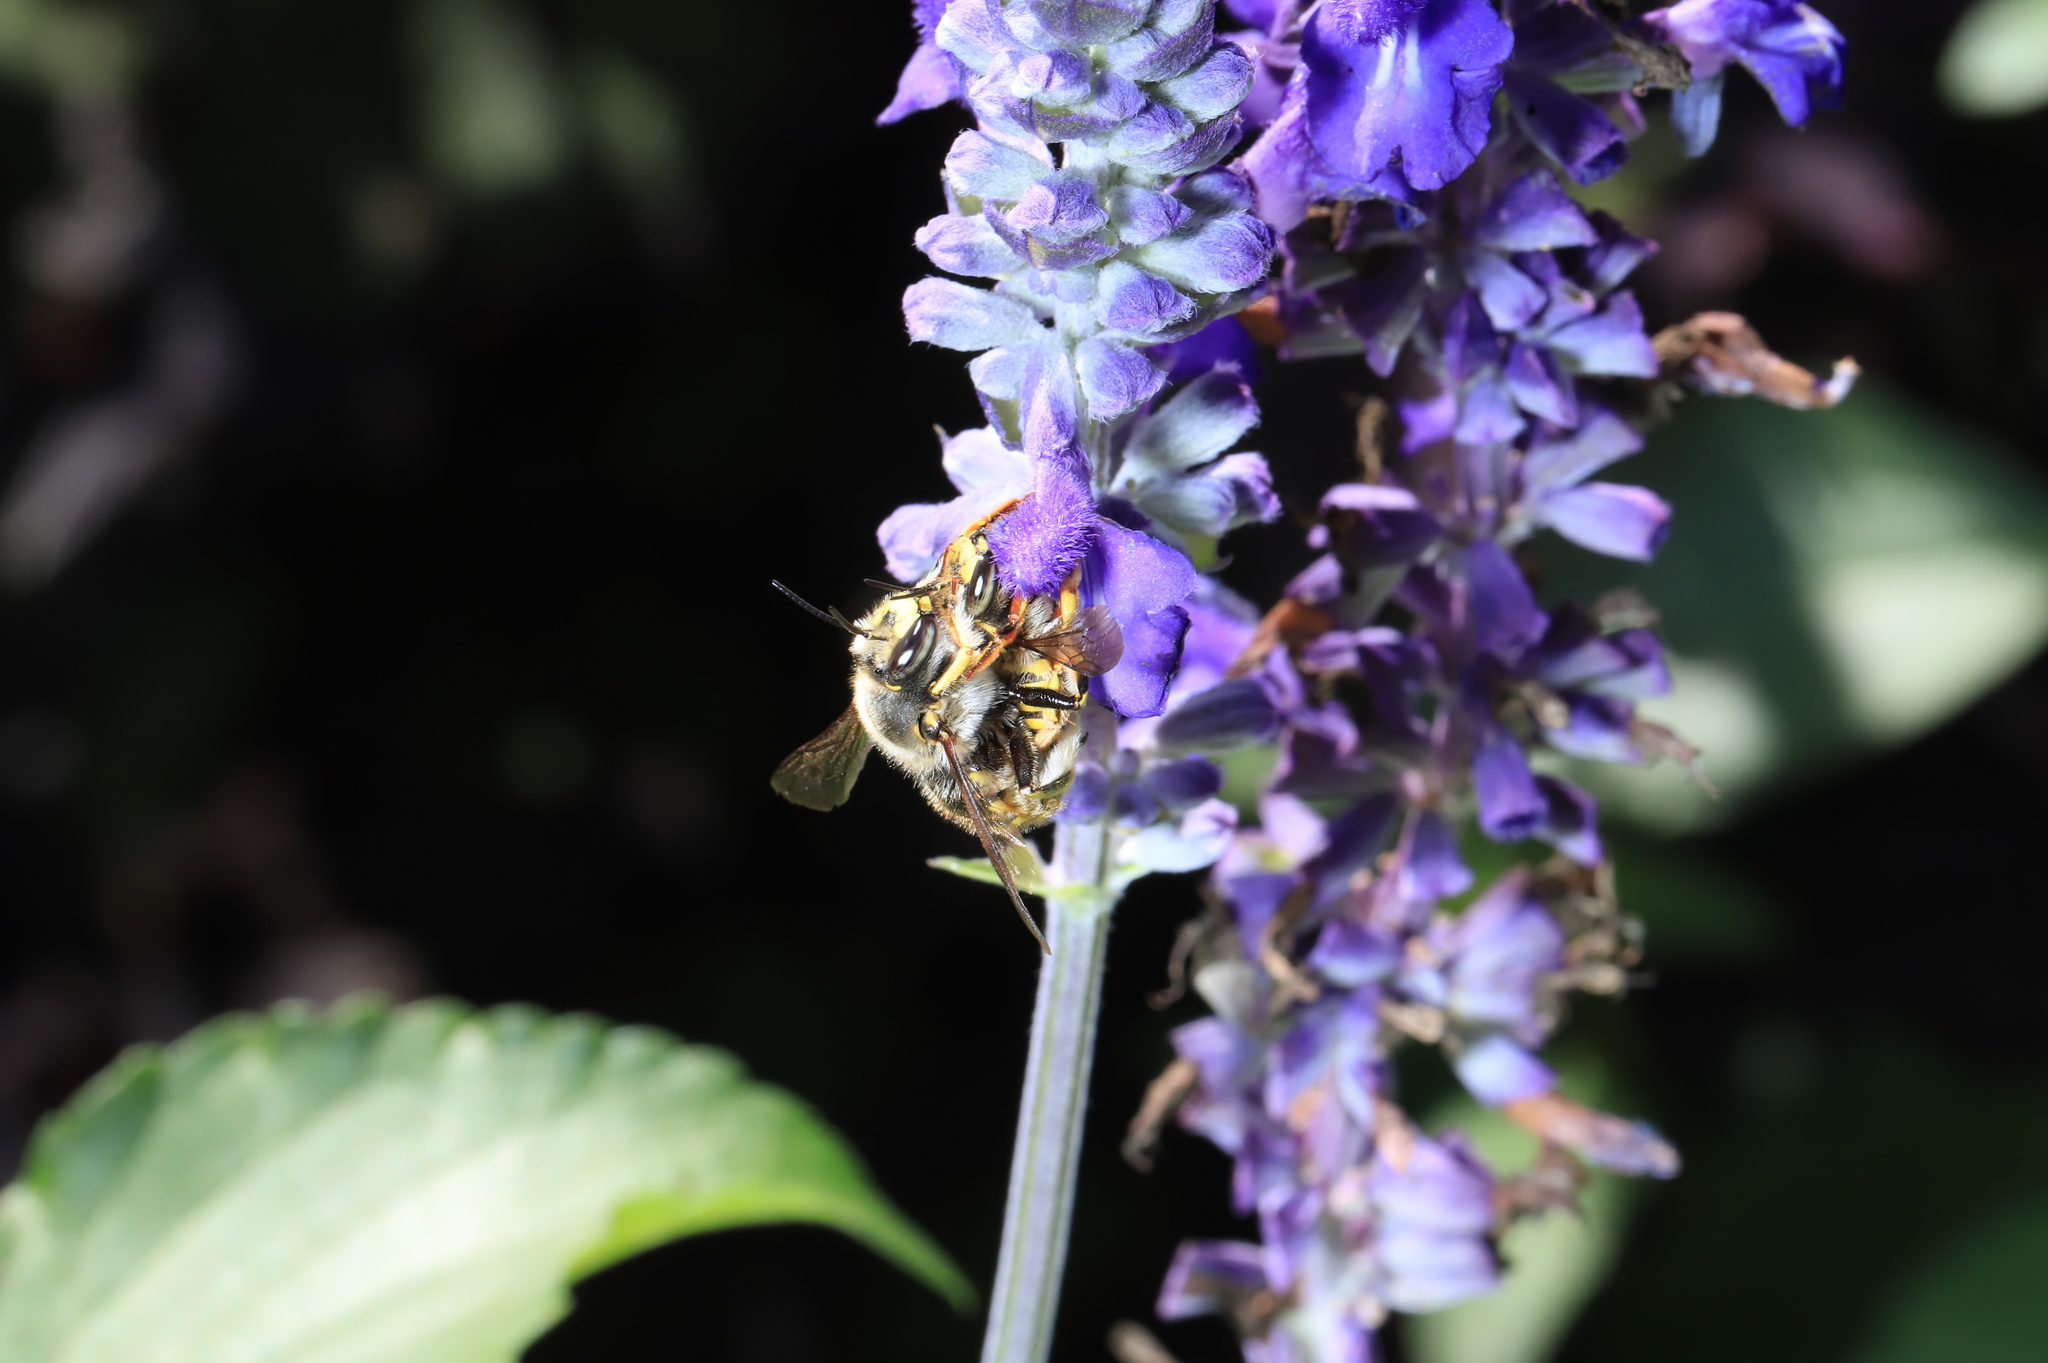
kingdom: Animalia
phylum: Arthropoda
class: Insecta
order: Hymenoptera
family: Megachilidae
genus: Anthidium
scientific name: Anthidium manicatum
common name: Wool carder bee
